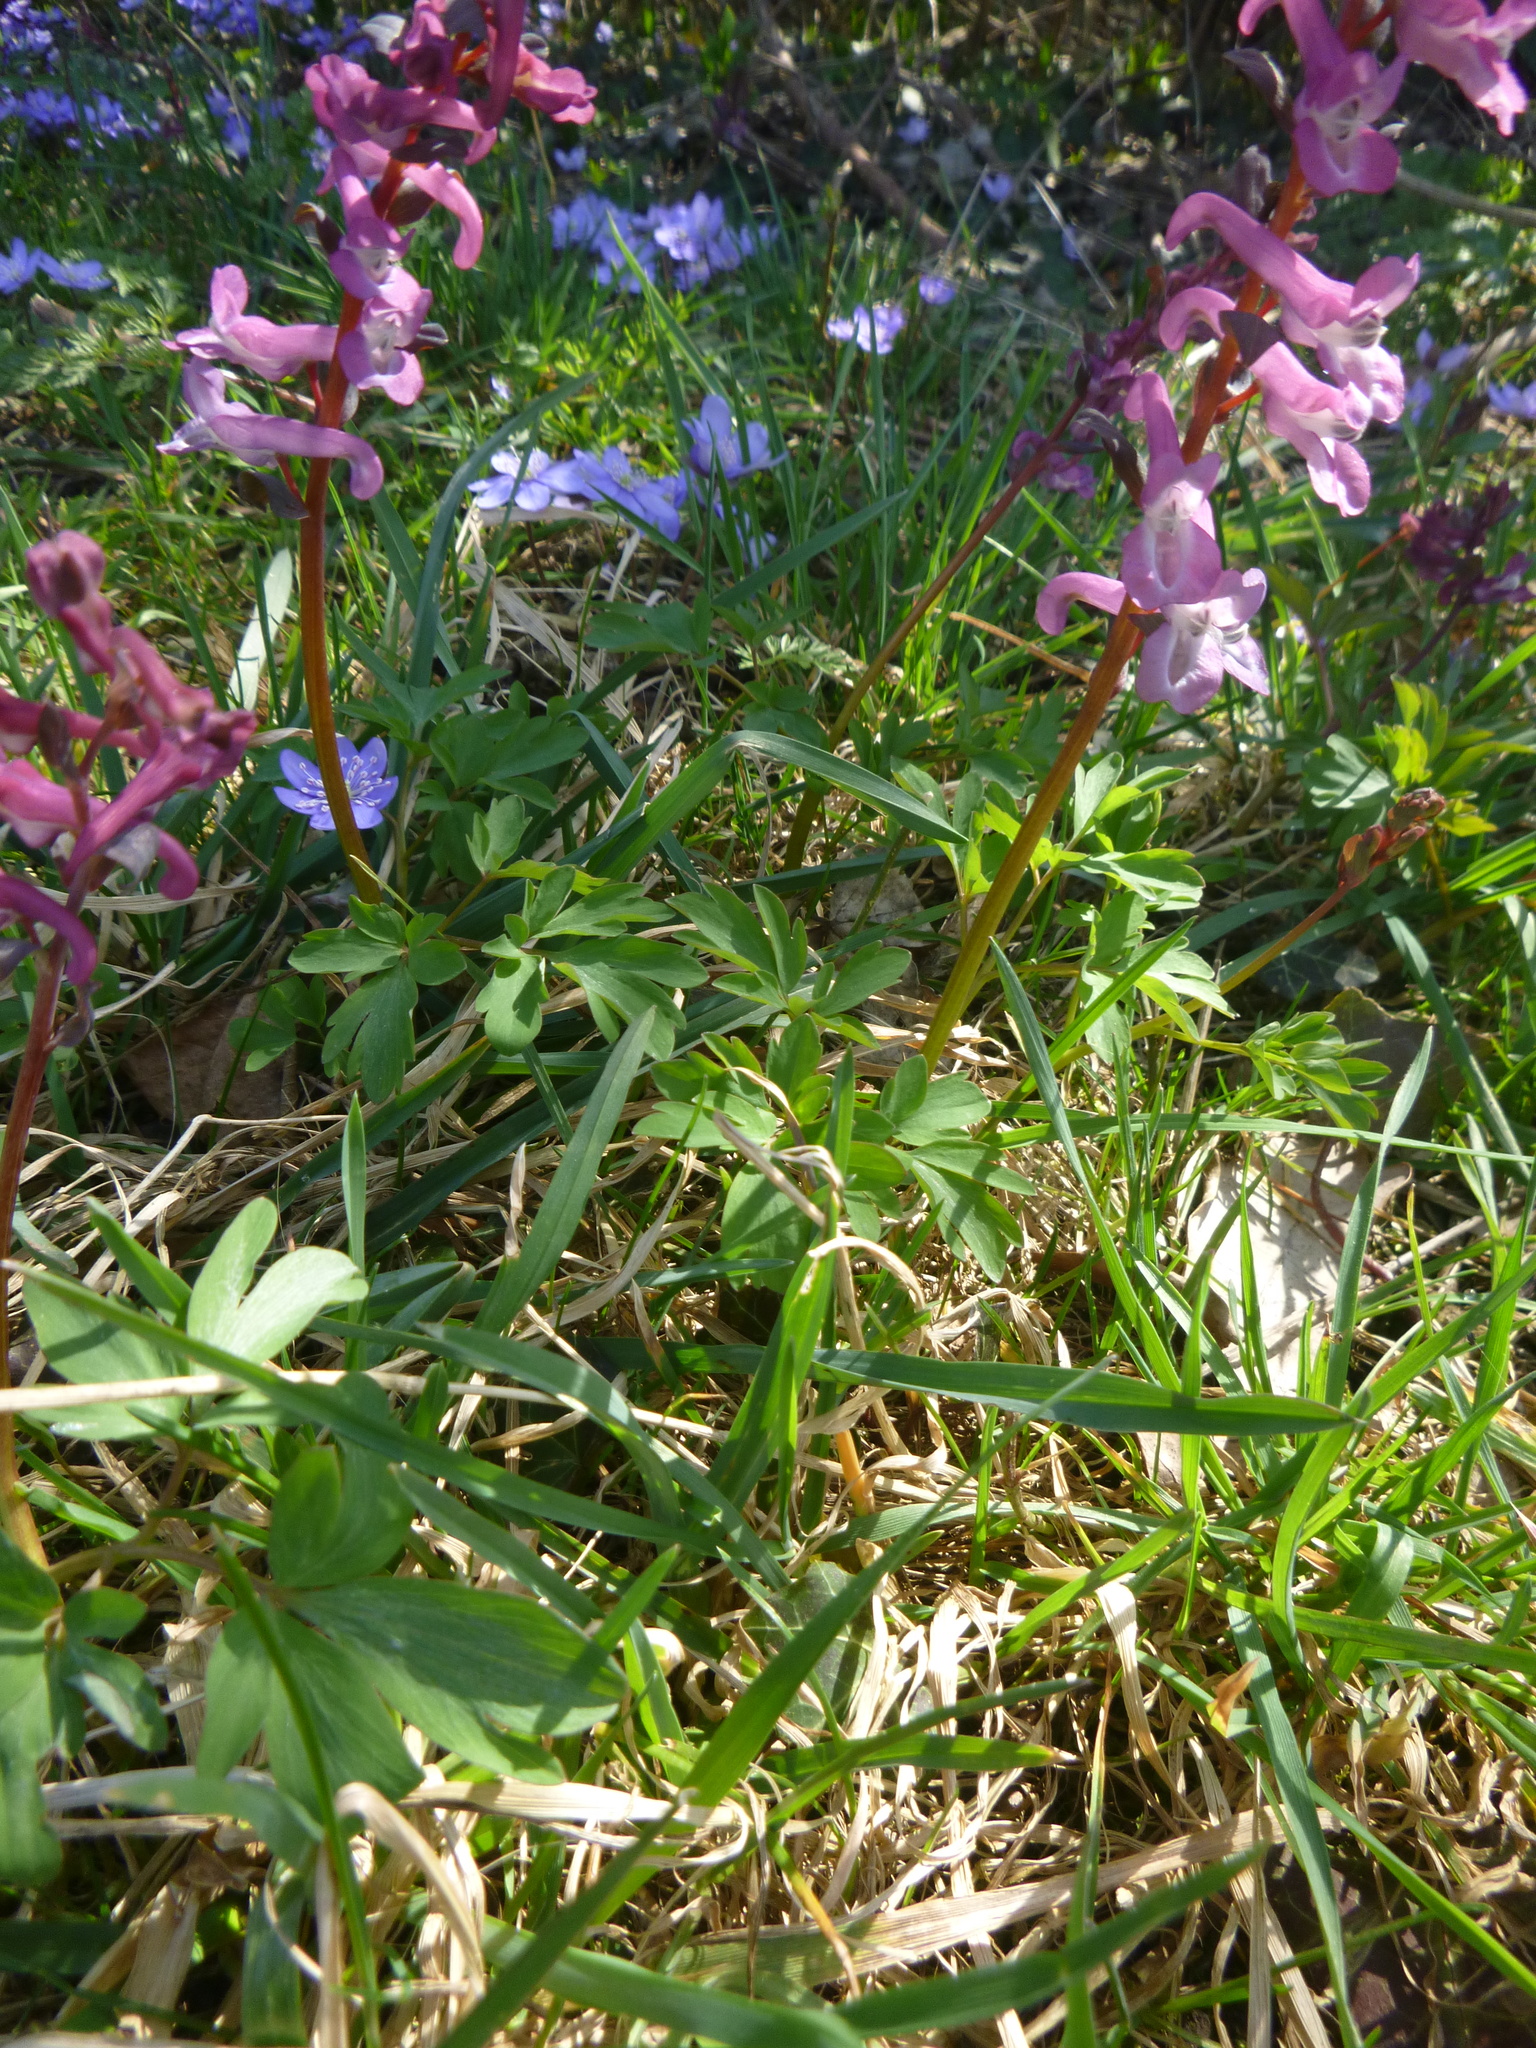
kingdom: Plantae
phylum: Tracheophyta
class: Magnoliopsida
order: Ranunculales
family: Papaveraceae
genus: Corydalis
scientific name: Corydalis cava
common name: Hollowroot
